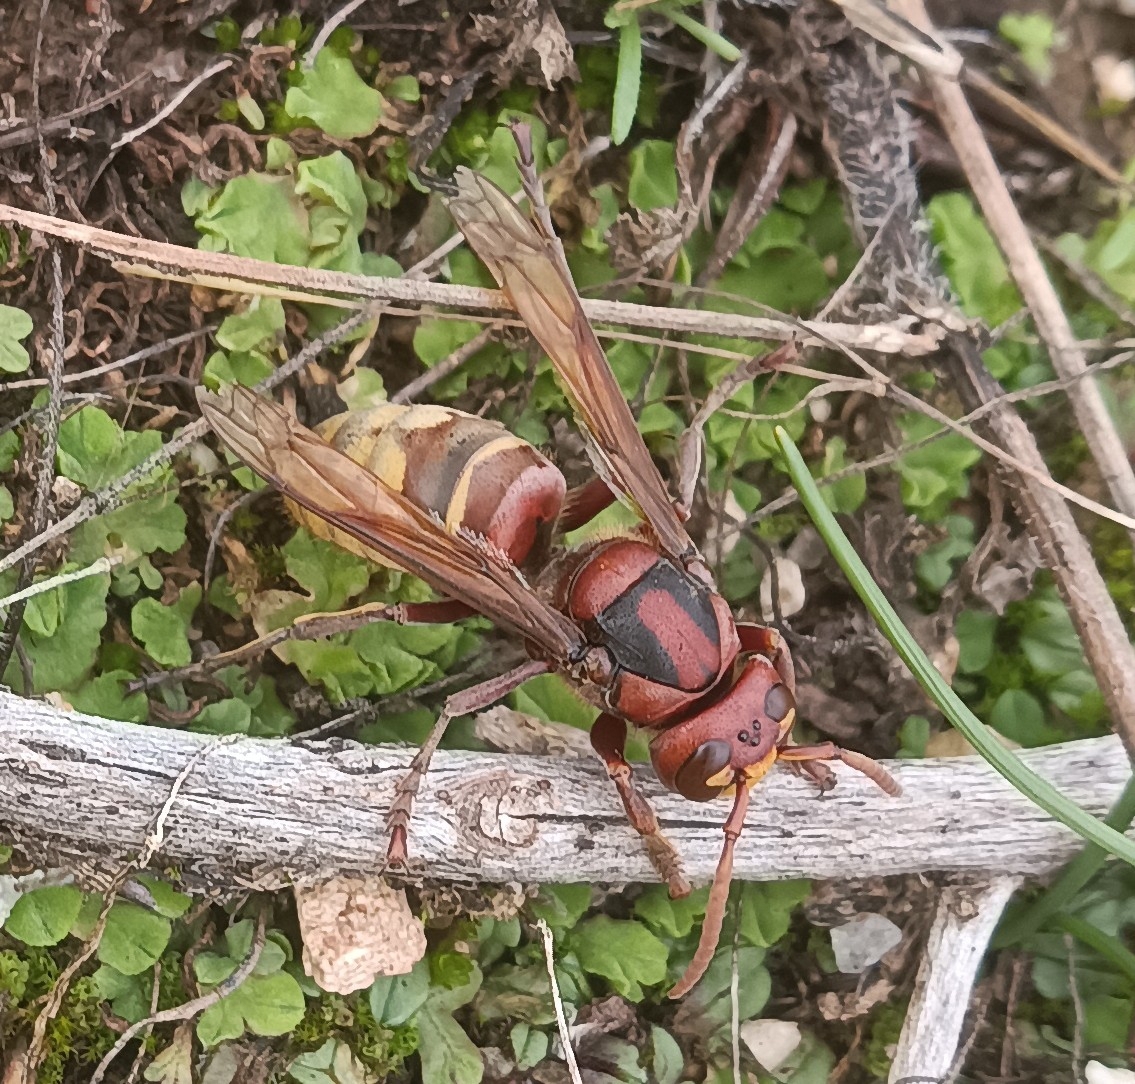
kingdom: Animalia
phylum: Arthropoda
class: Insecta
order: Hymenoptera
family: Vespidae
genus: Vespa
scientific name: Vespa crabro
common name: Hornet
